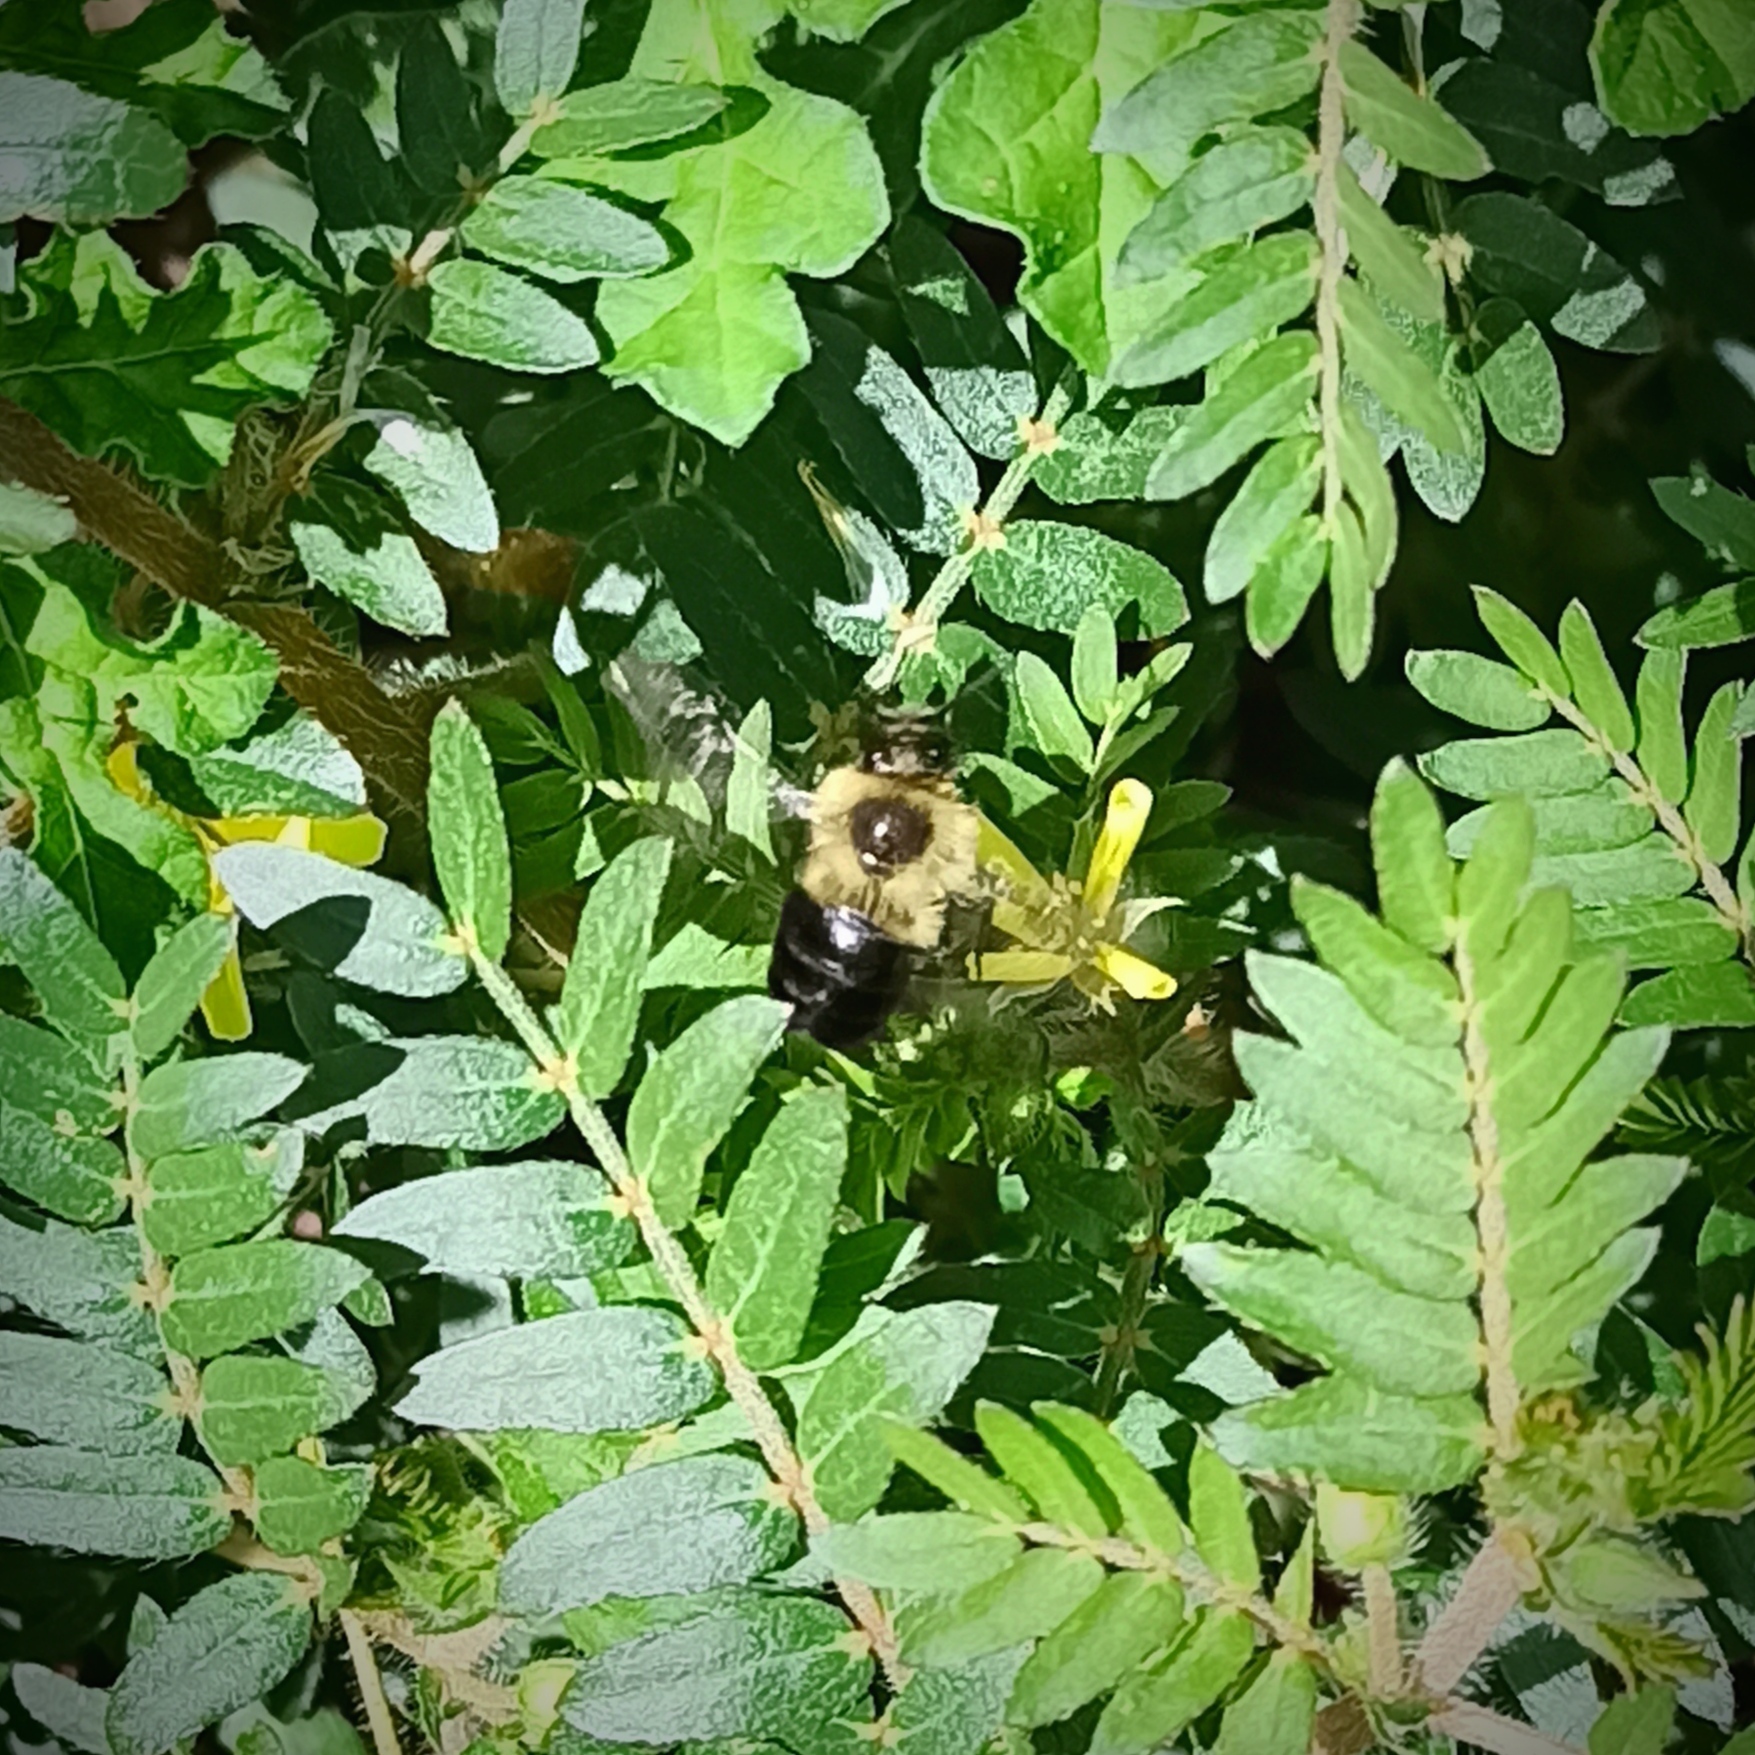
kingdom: Animalia
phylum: Arthropoda
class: Insecta
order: Hymenoptera
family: Apidae
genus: Bombus
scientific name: Bombus impatiens
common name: Common eastern bumble bee
